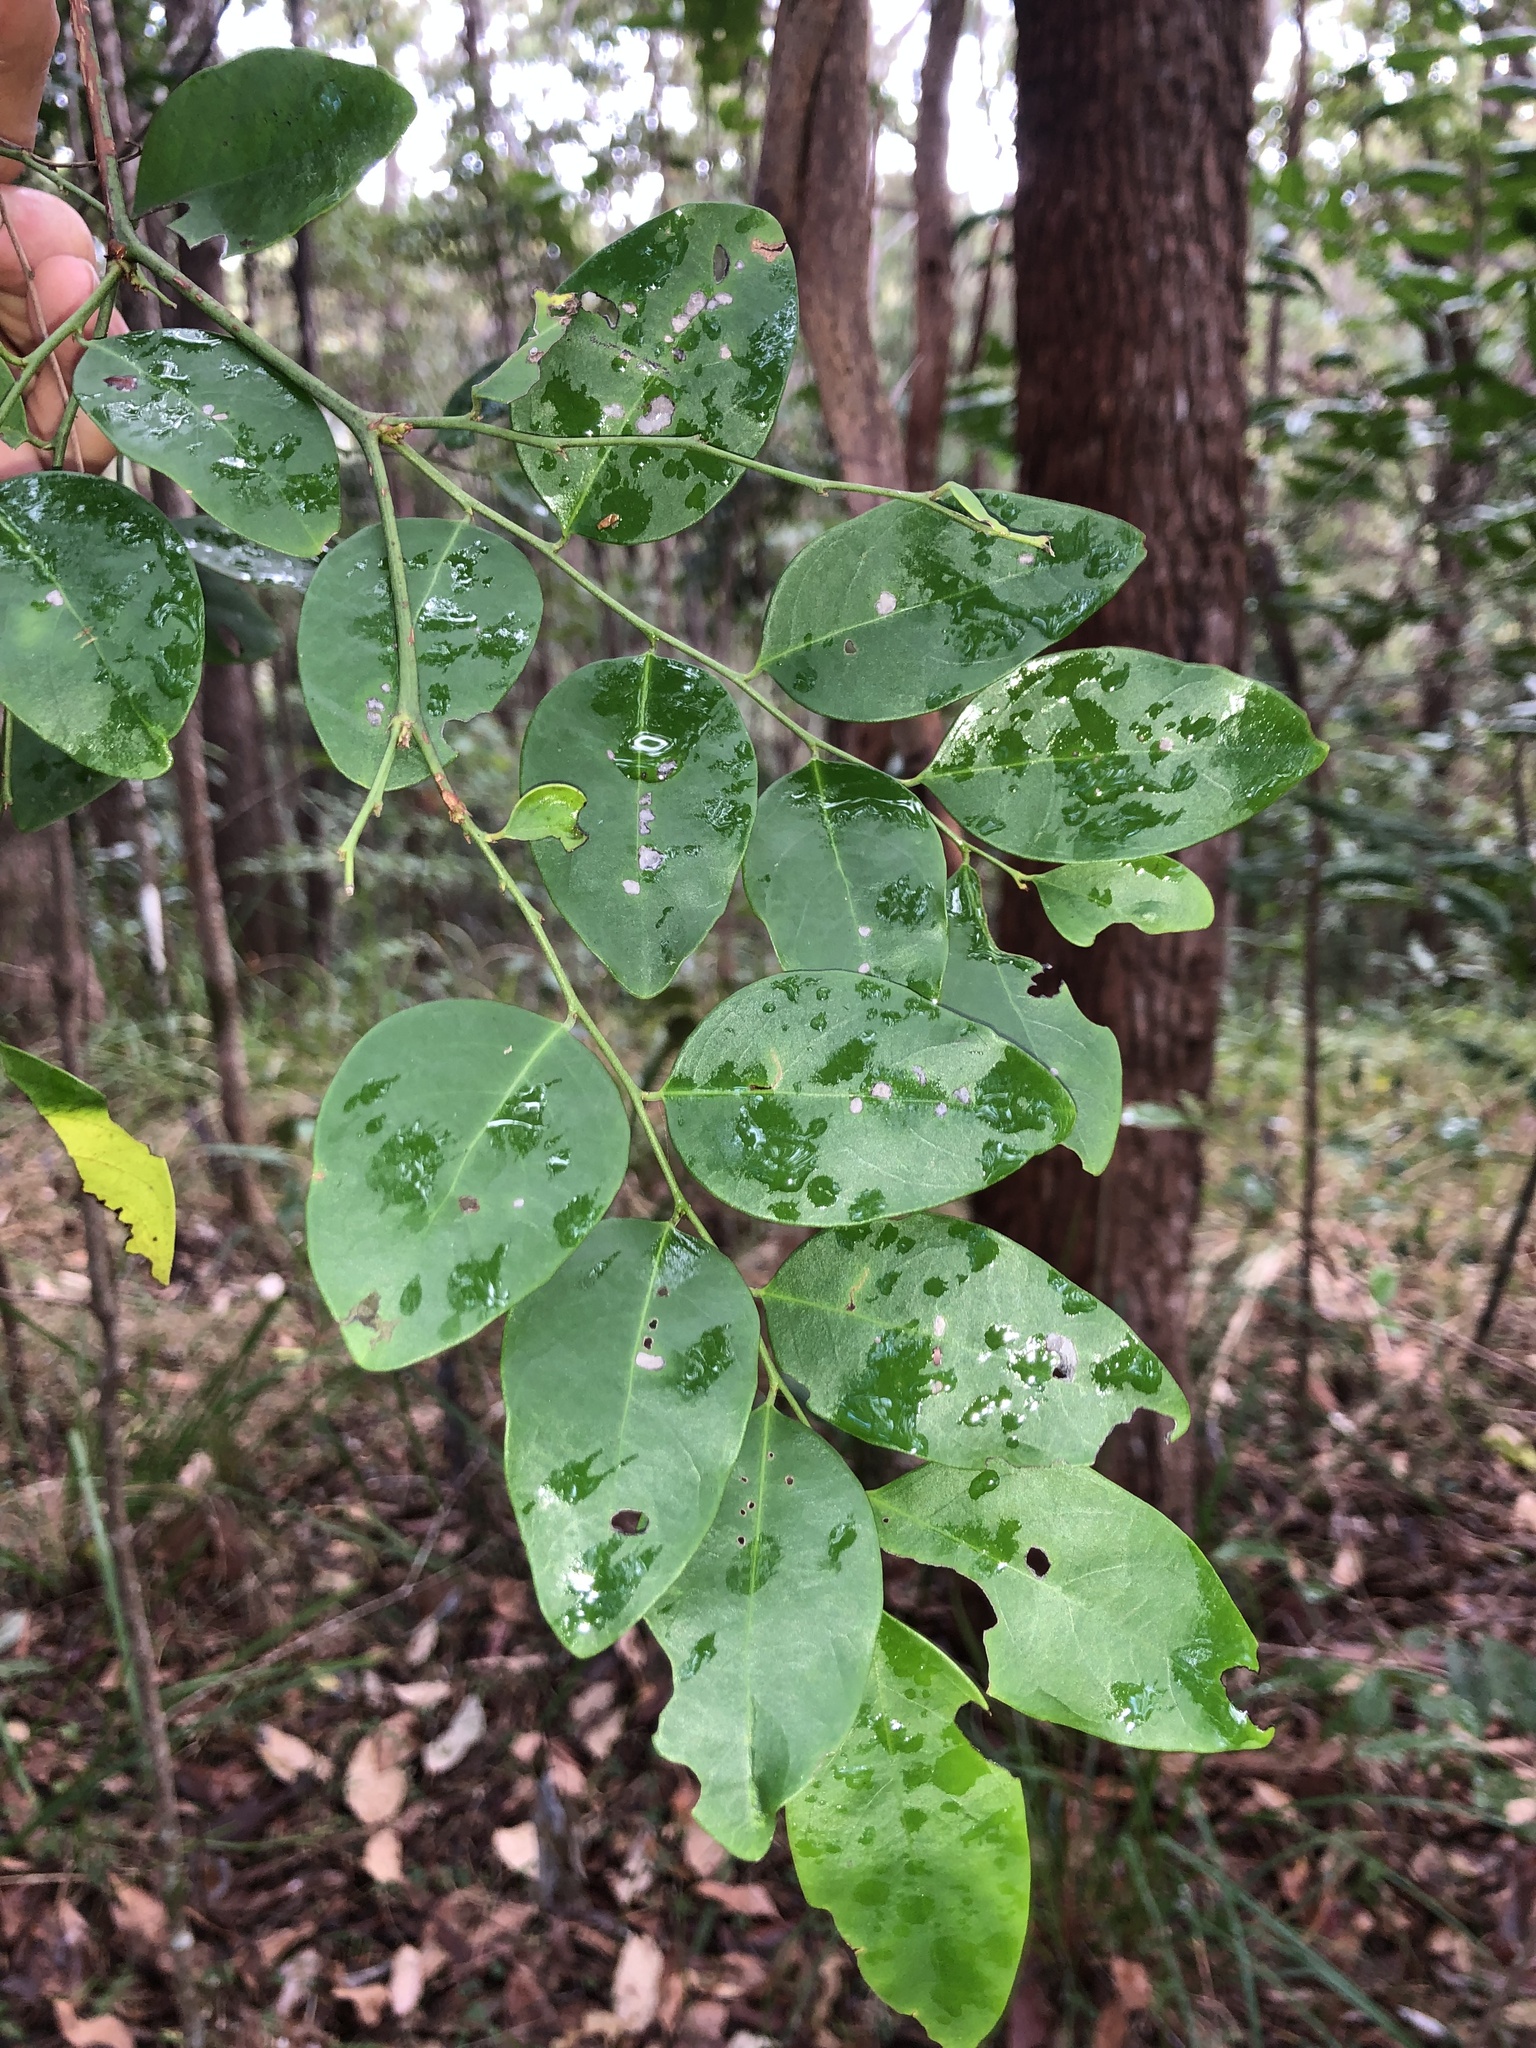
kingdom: Plantae
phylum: Tracheophyta
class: Magnoliopsida
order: Malpighiales
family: Phyllanthaceae
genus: Breynia
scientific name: Breynia oblongifolia
